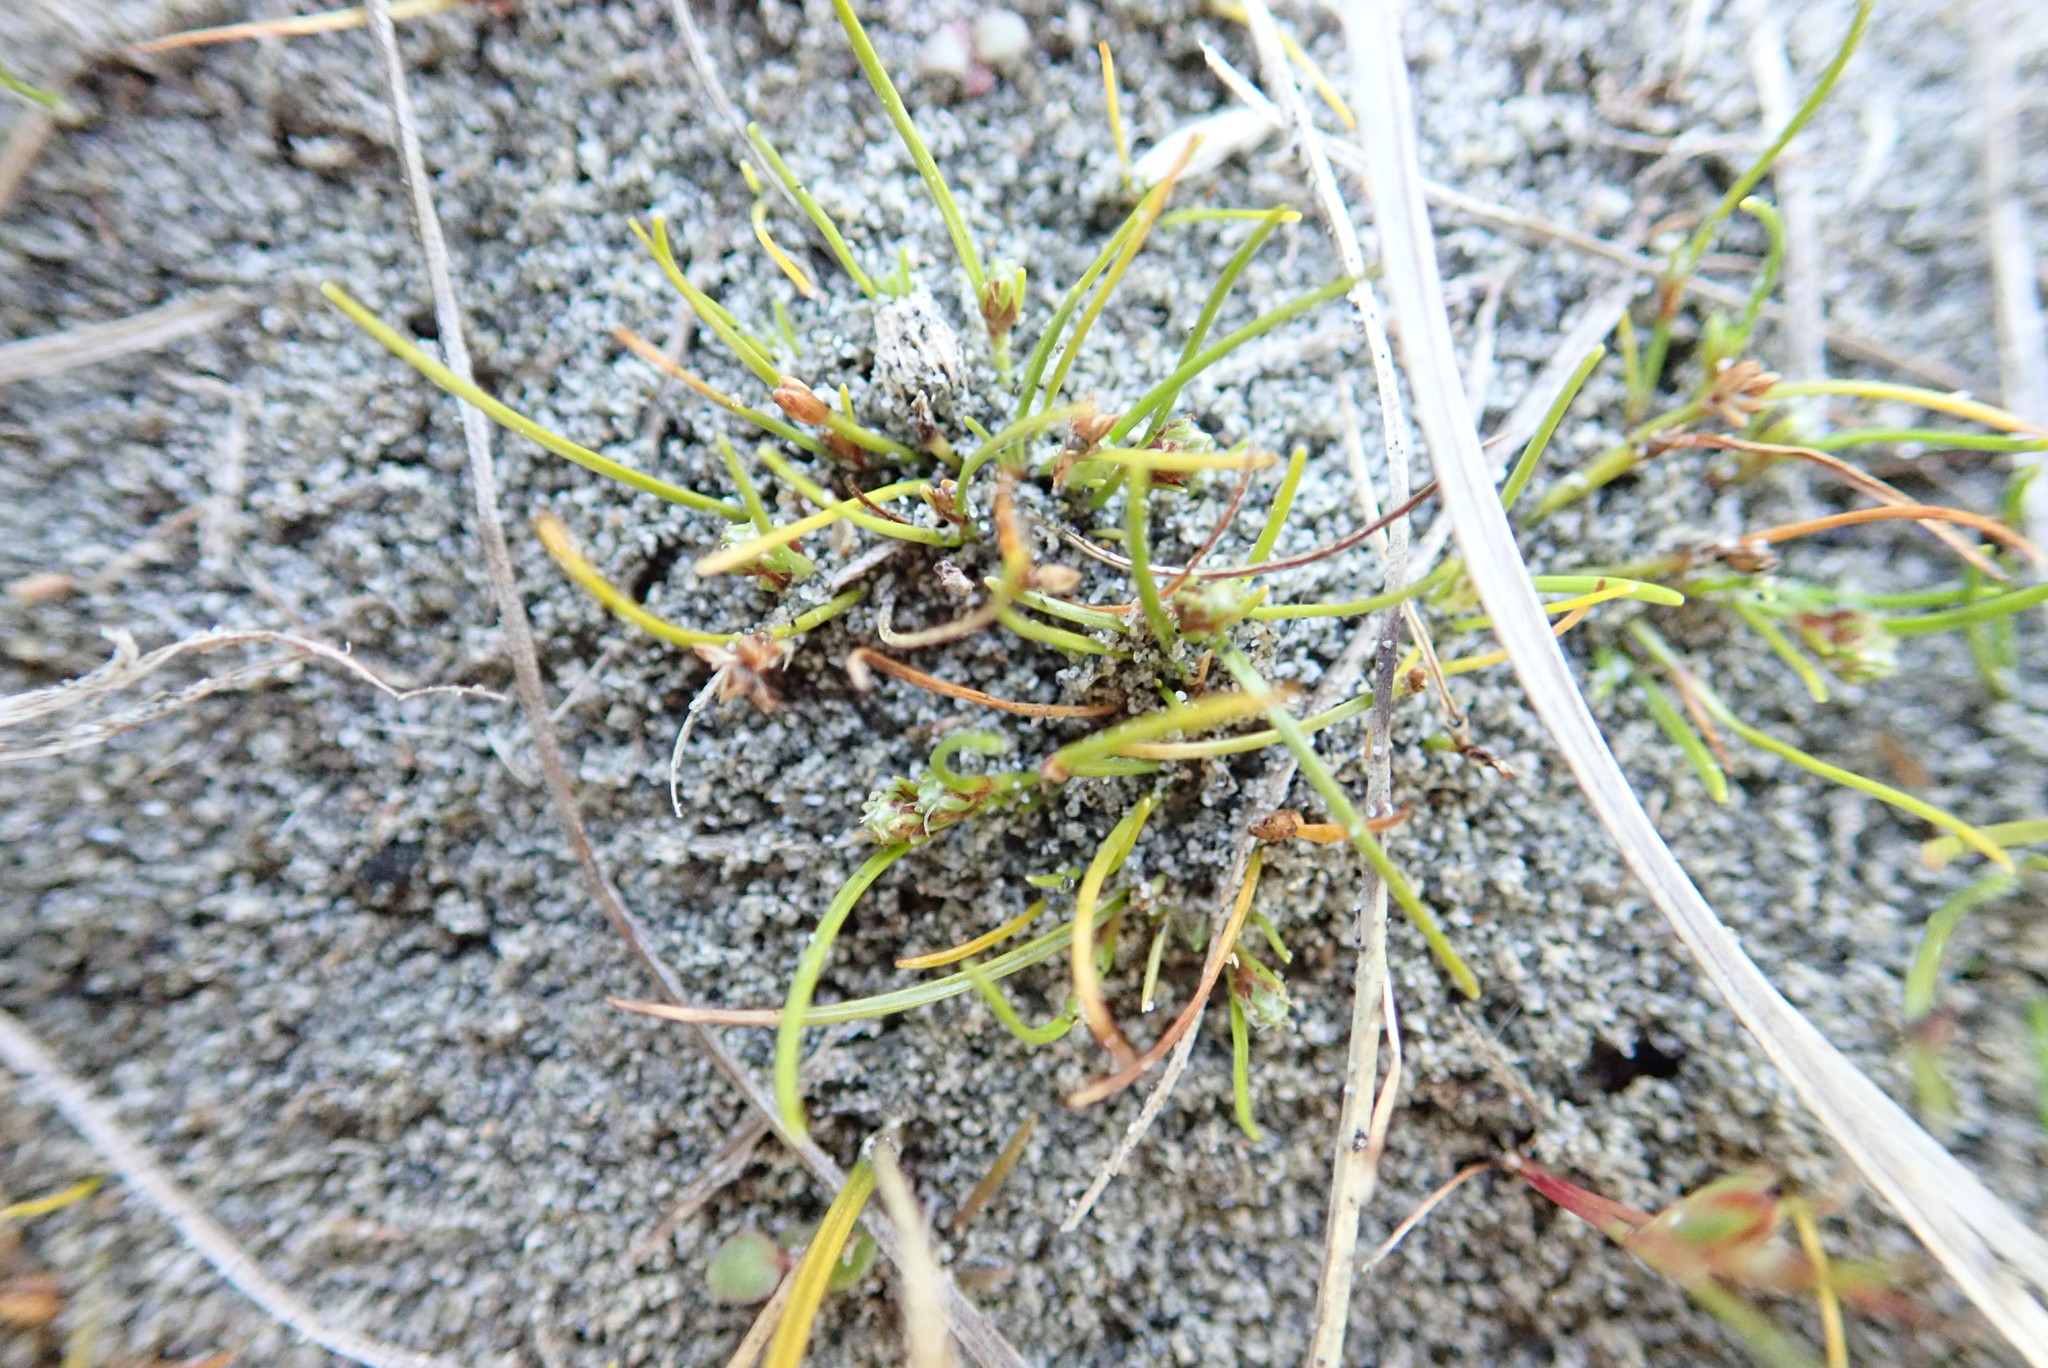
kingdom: Plantae
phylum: Tracheophyta
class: Liliopsida
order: Poales
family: Cyperaceae
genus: Isolepis
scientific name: Isolepis basilaris
